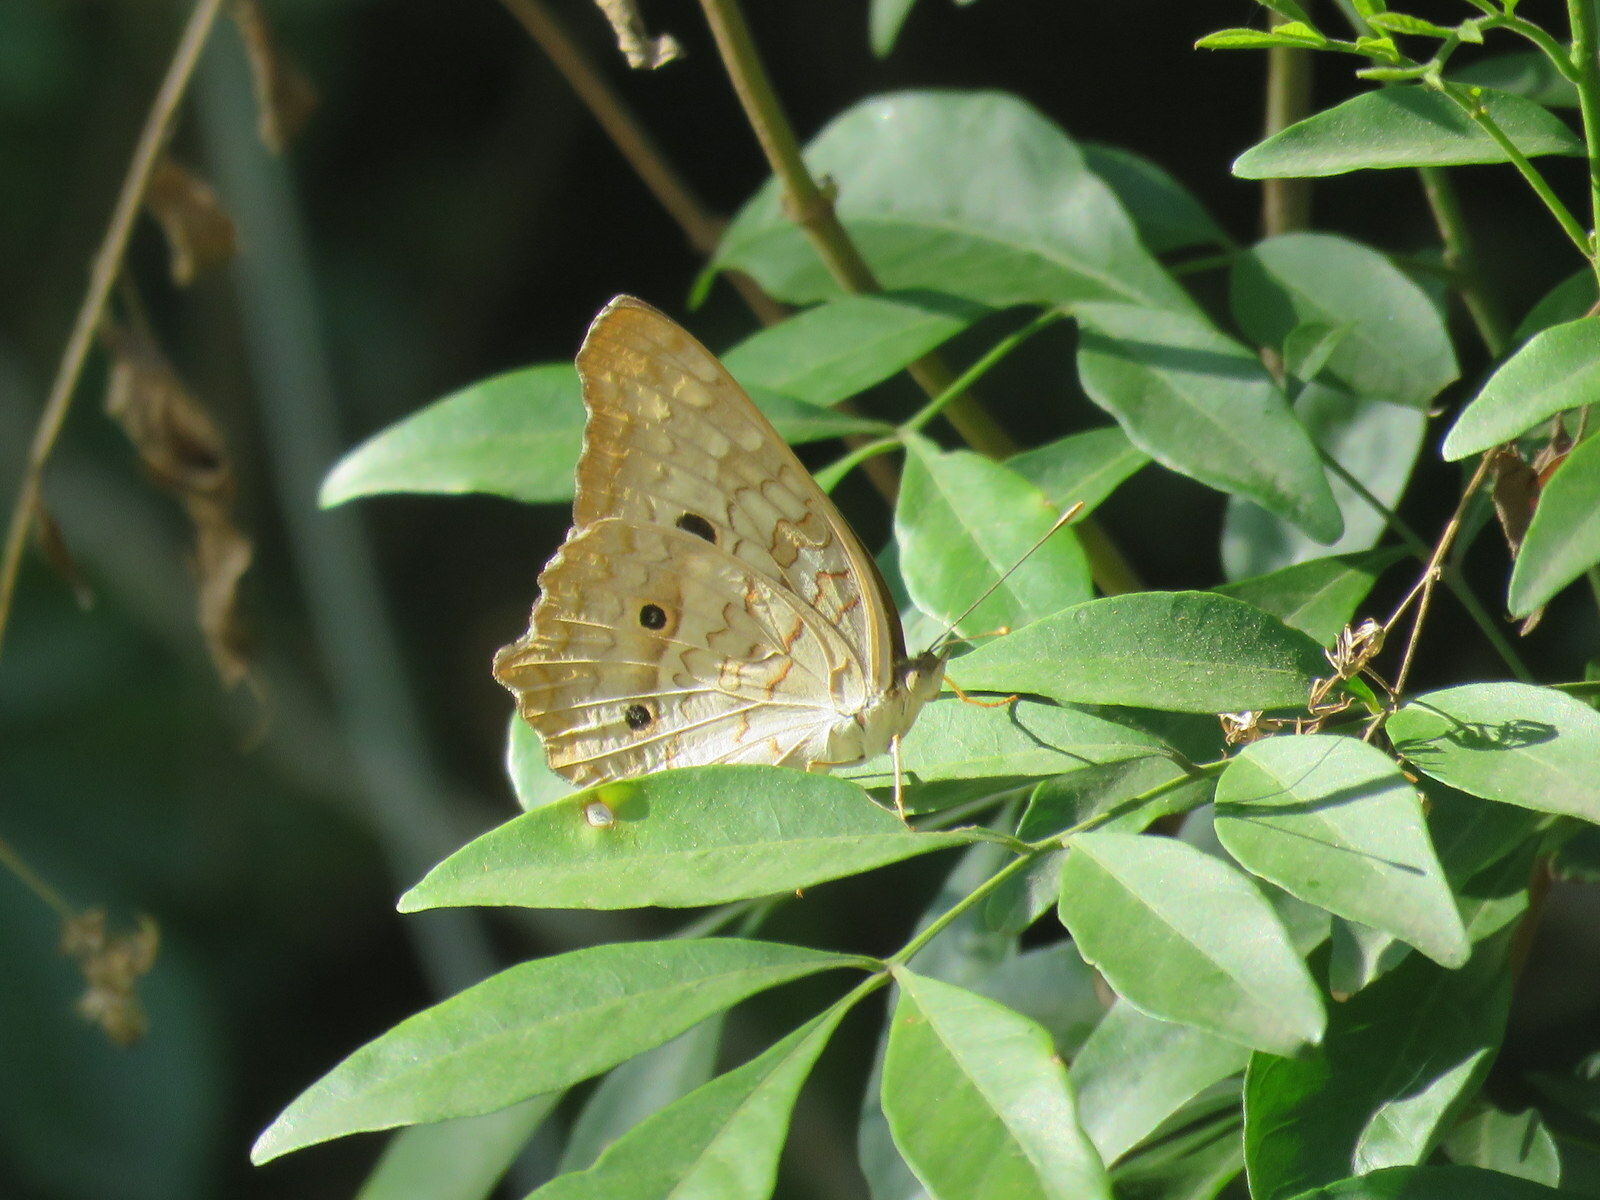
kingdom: Animalia
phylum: Arthropoda
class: Insecta
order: Lepidoptera
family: Nymphalidae
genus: Anartia
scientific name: Anartia jatrophae
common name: White peacock
